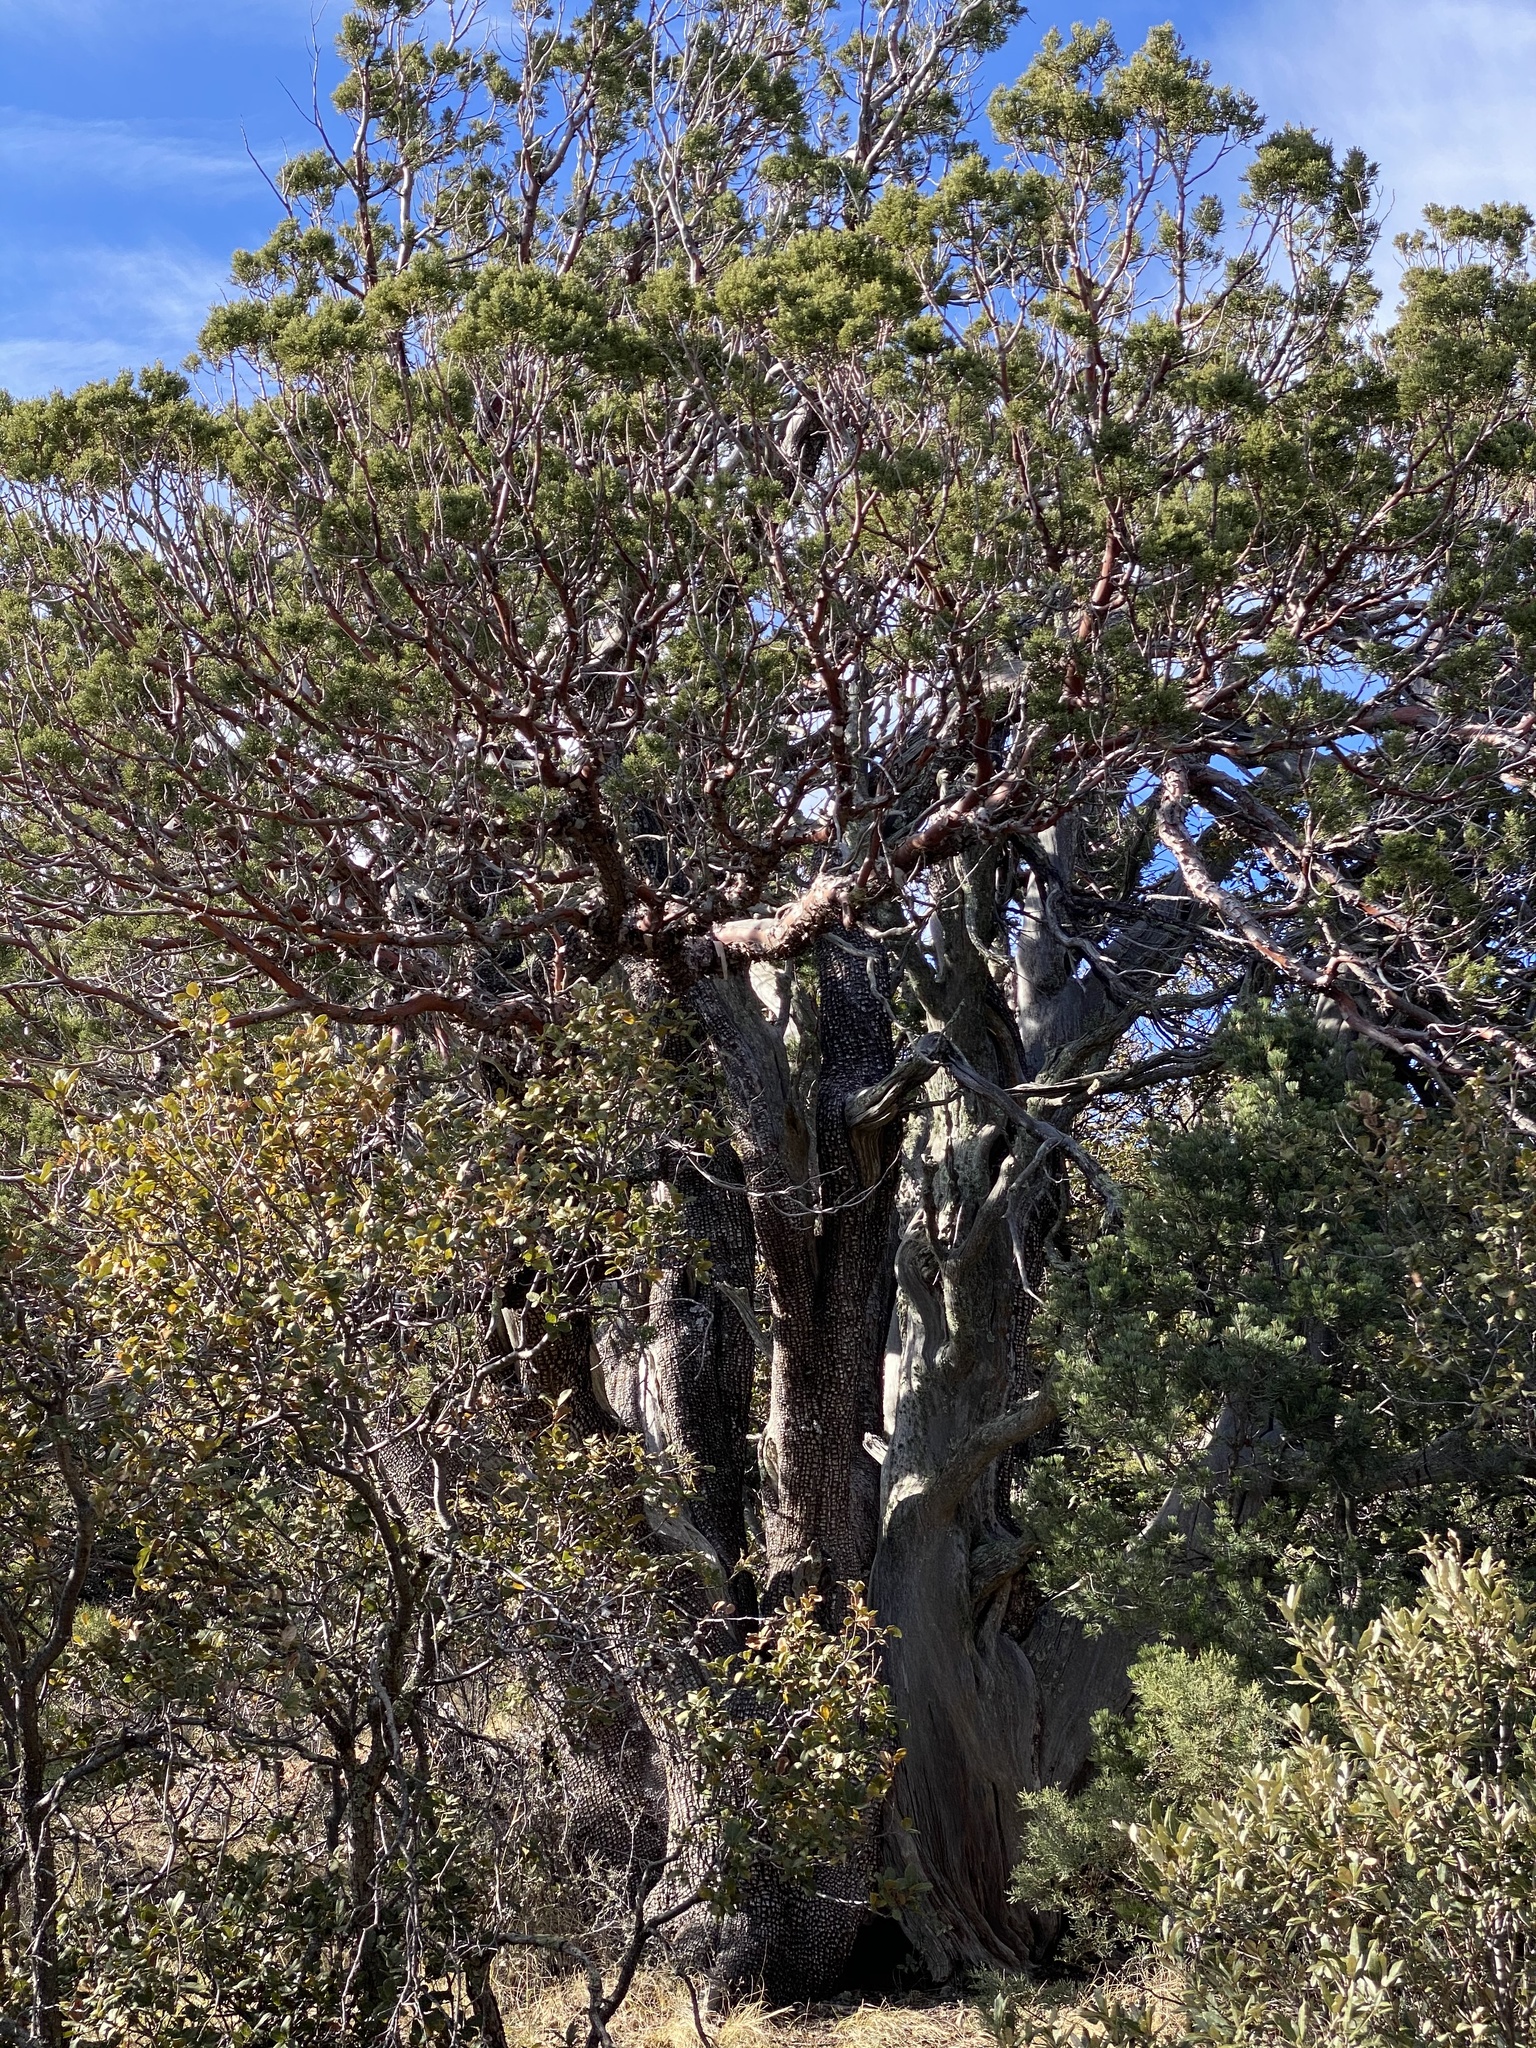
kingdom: Plantae
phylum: Tracheophyta
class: Pinopsida
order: Pinales
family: Cupressaceae
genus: Juniperus
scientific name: Juniperus deppeana
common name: Alligator juniper
